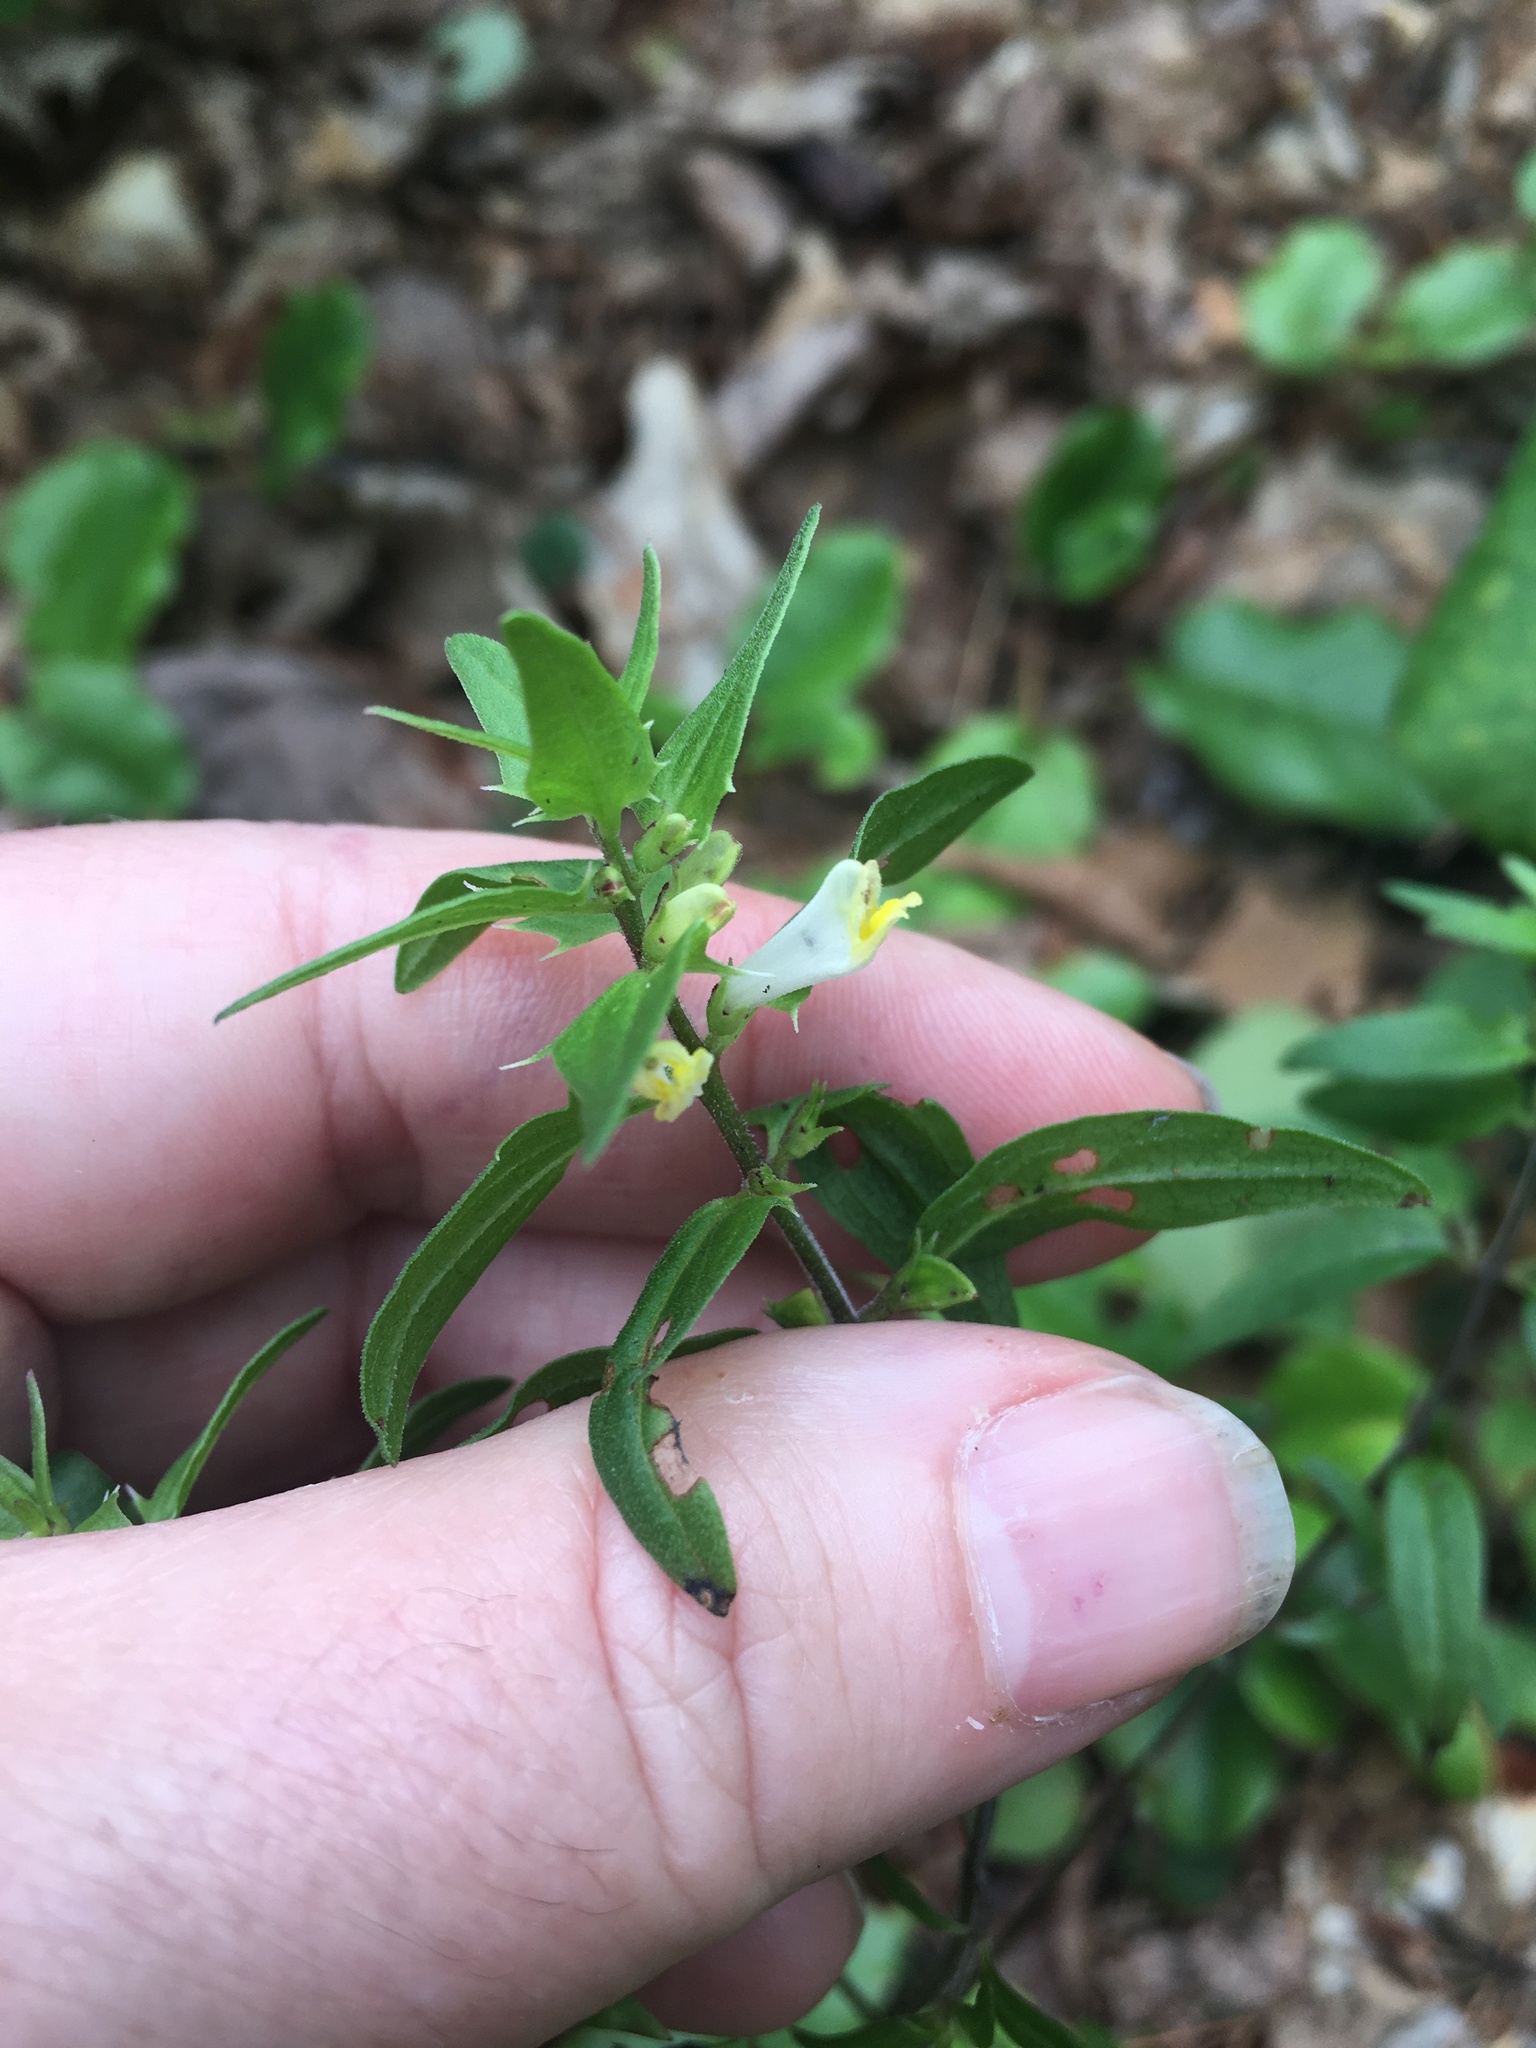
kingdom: Plantae
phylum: Tracheophyta
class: Magnoliopsida
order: Lamiales
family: Orobanchaceae
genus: Melampyrum
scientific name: Melampyrum lineare
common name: American cow-wheat
